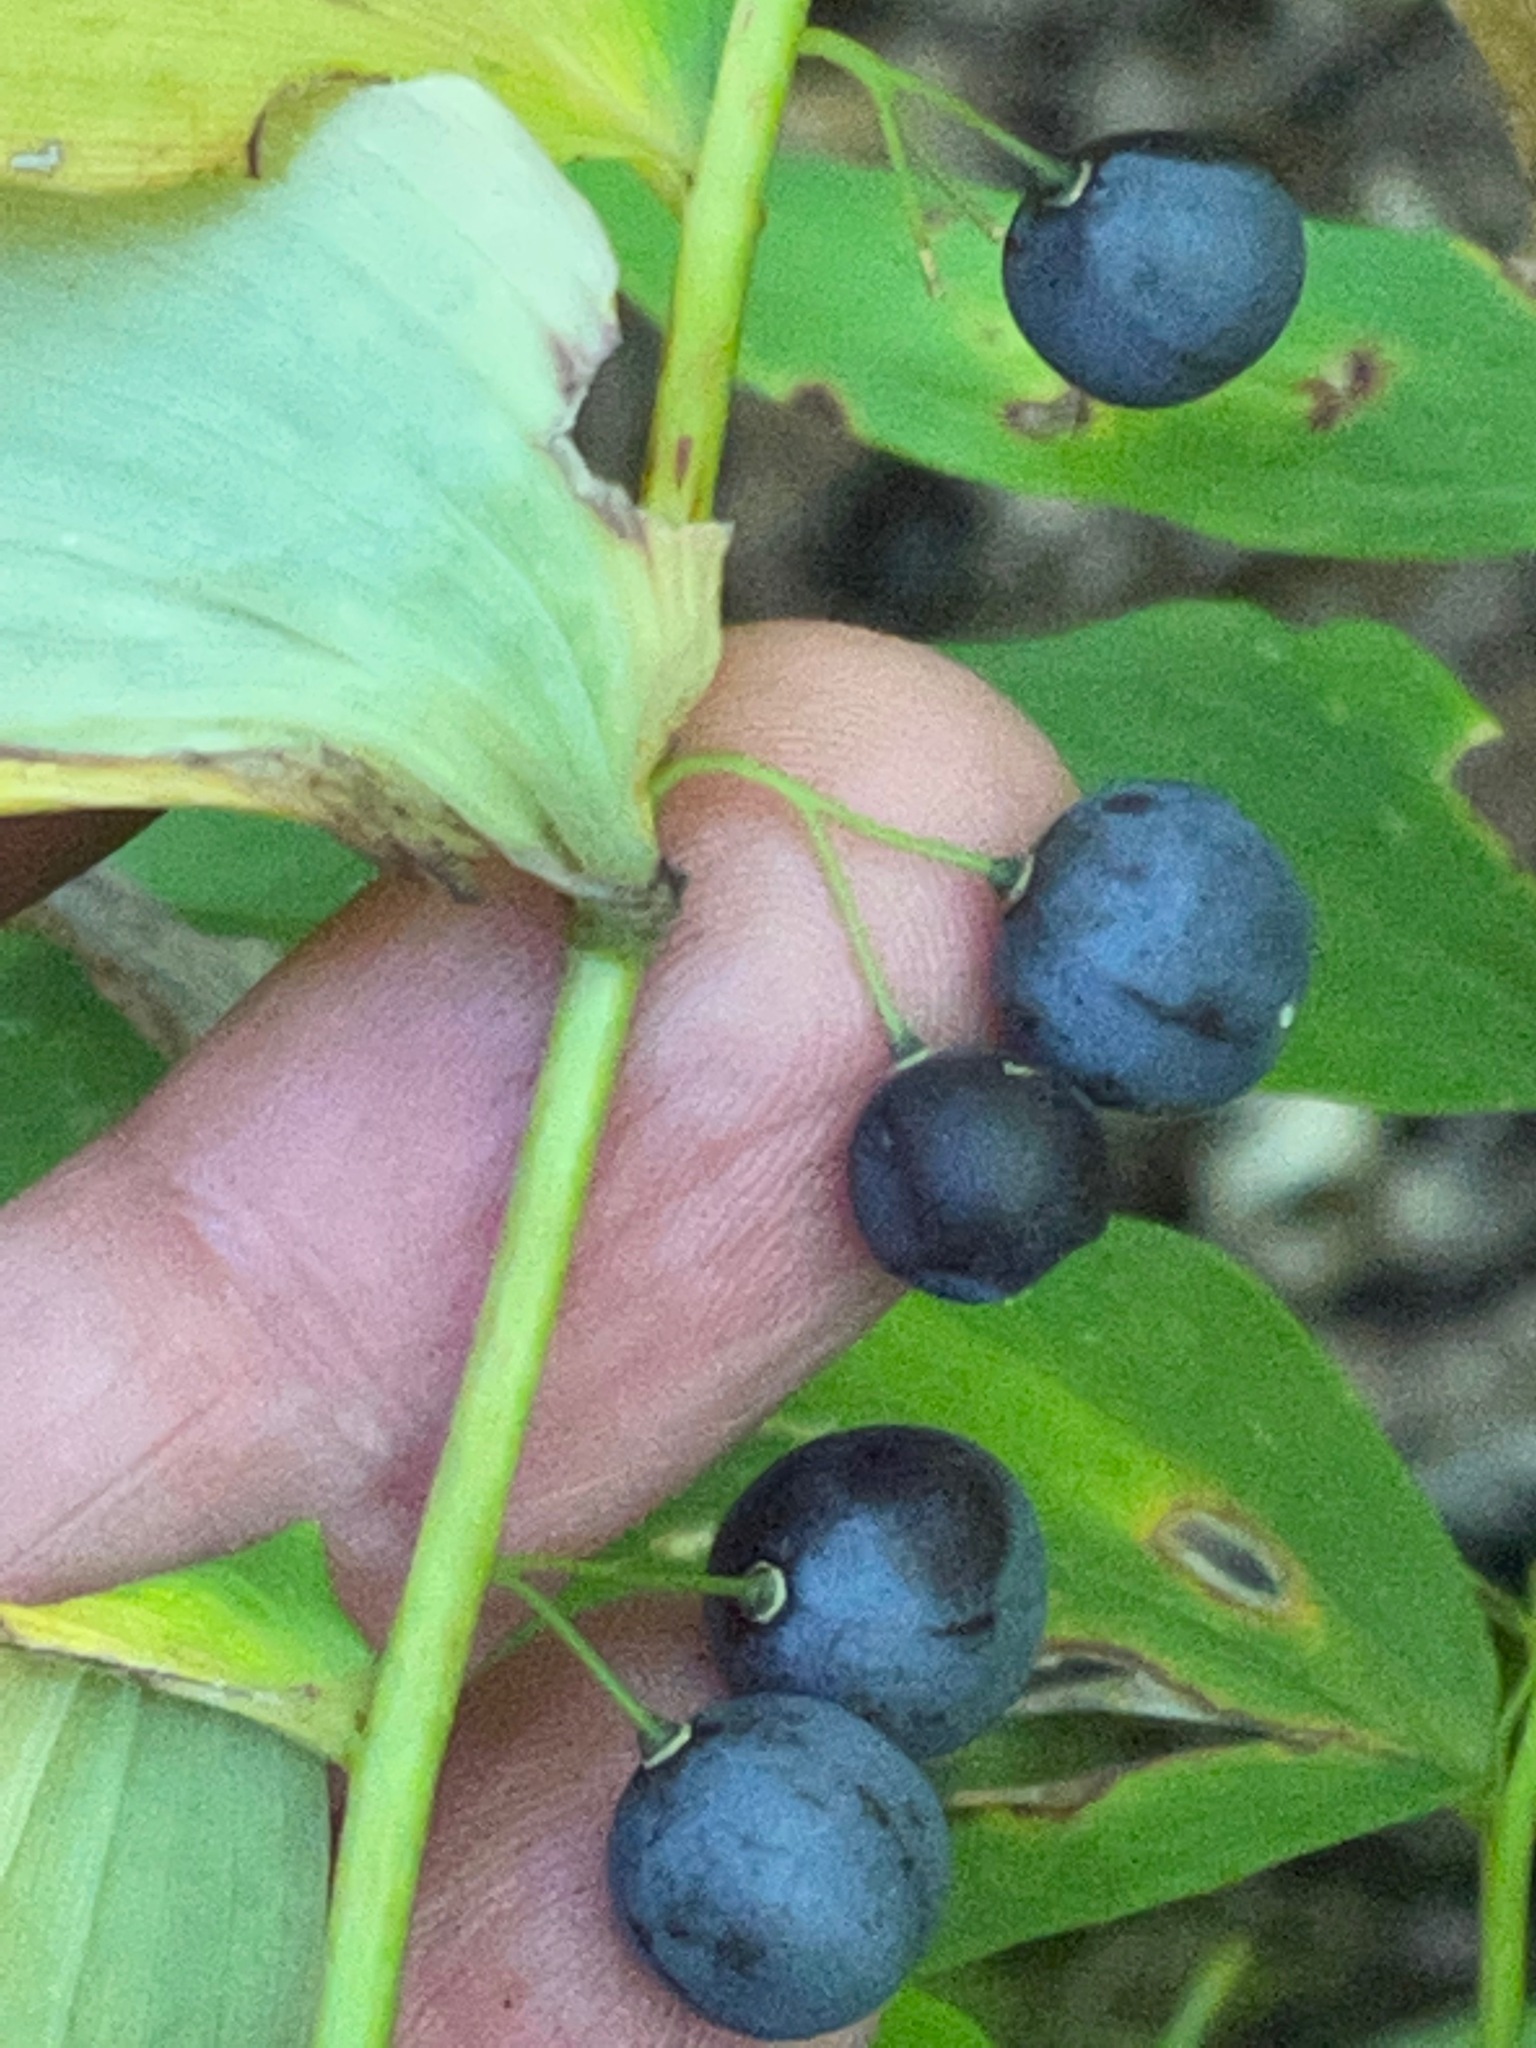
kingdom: Plantae
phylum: Tracheophyta
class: Liliopsida
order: Asparagales
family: Asparagaceae
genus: Polygonatum
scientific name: Polygonatum pubescens
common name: Downy solomon's seal
